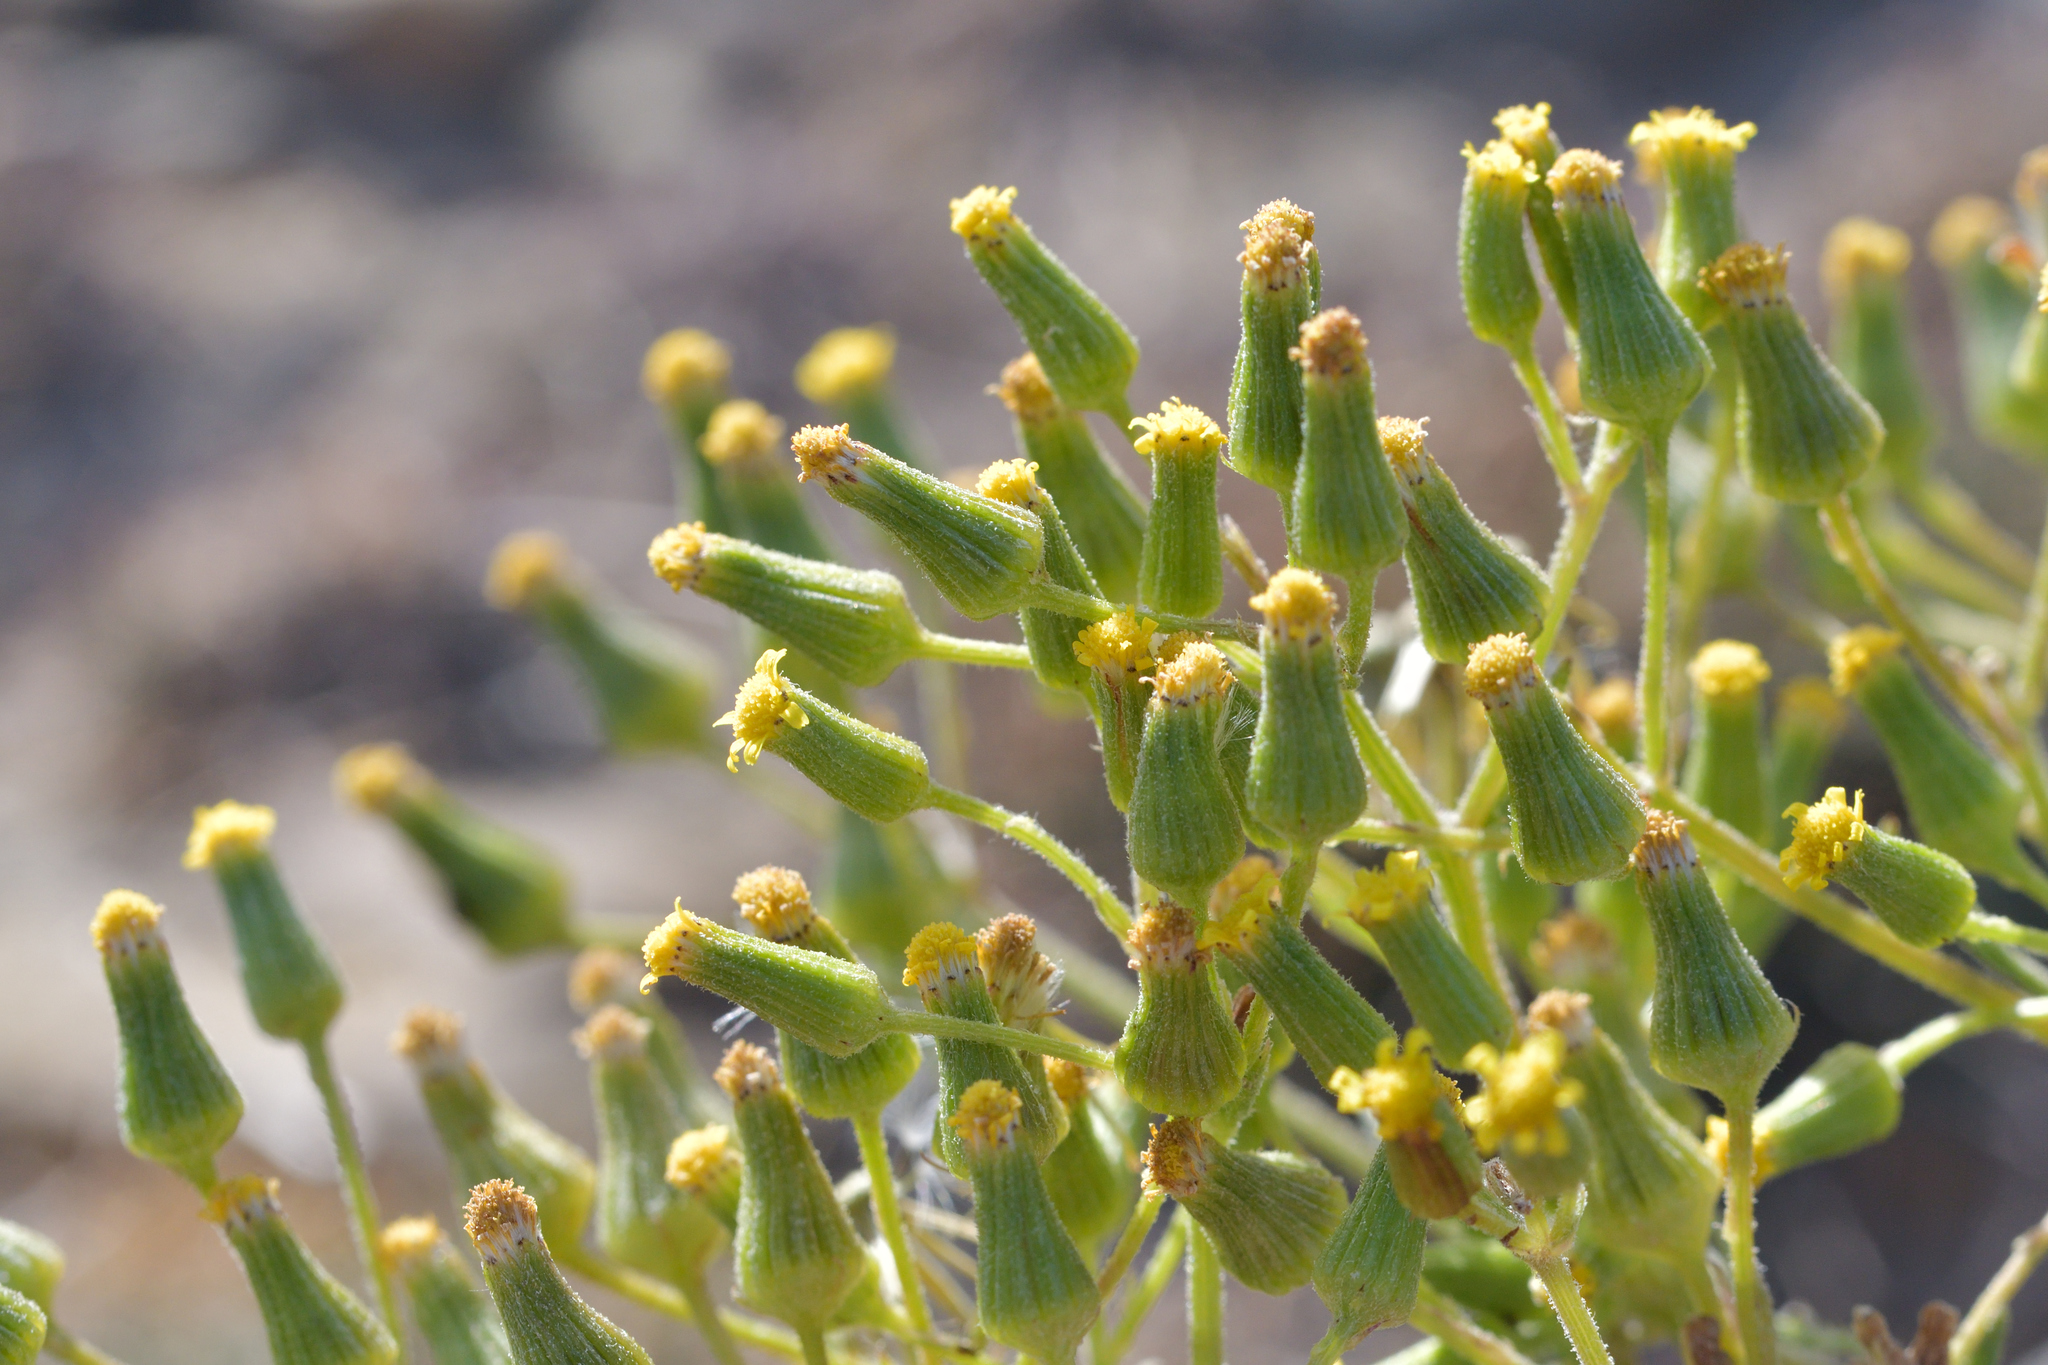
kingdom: Plantae
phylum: Tracheophyta
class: Magnoliopsida
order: Asterales
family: Asteraceae
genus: Senecio
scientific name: Senecio sylvaticus
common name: Woodland ragwort
